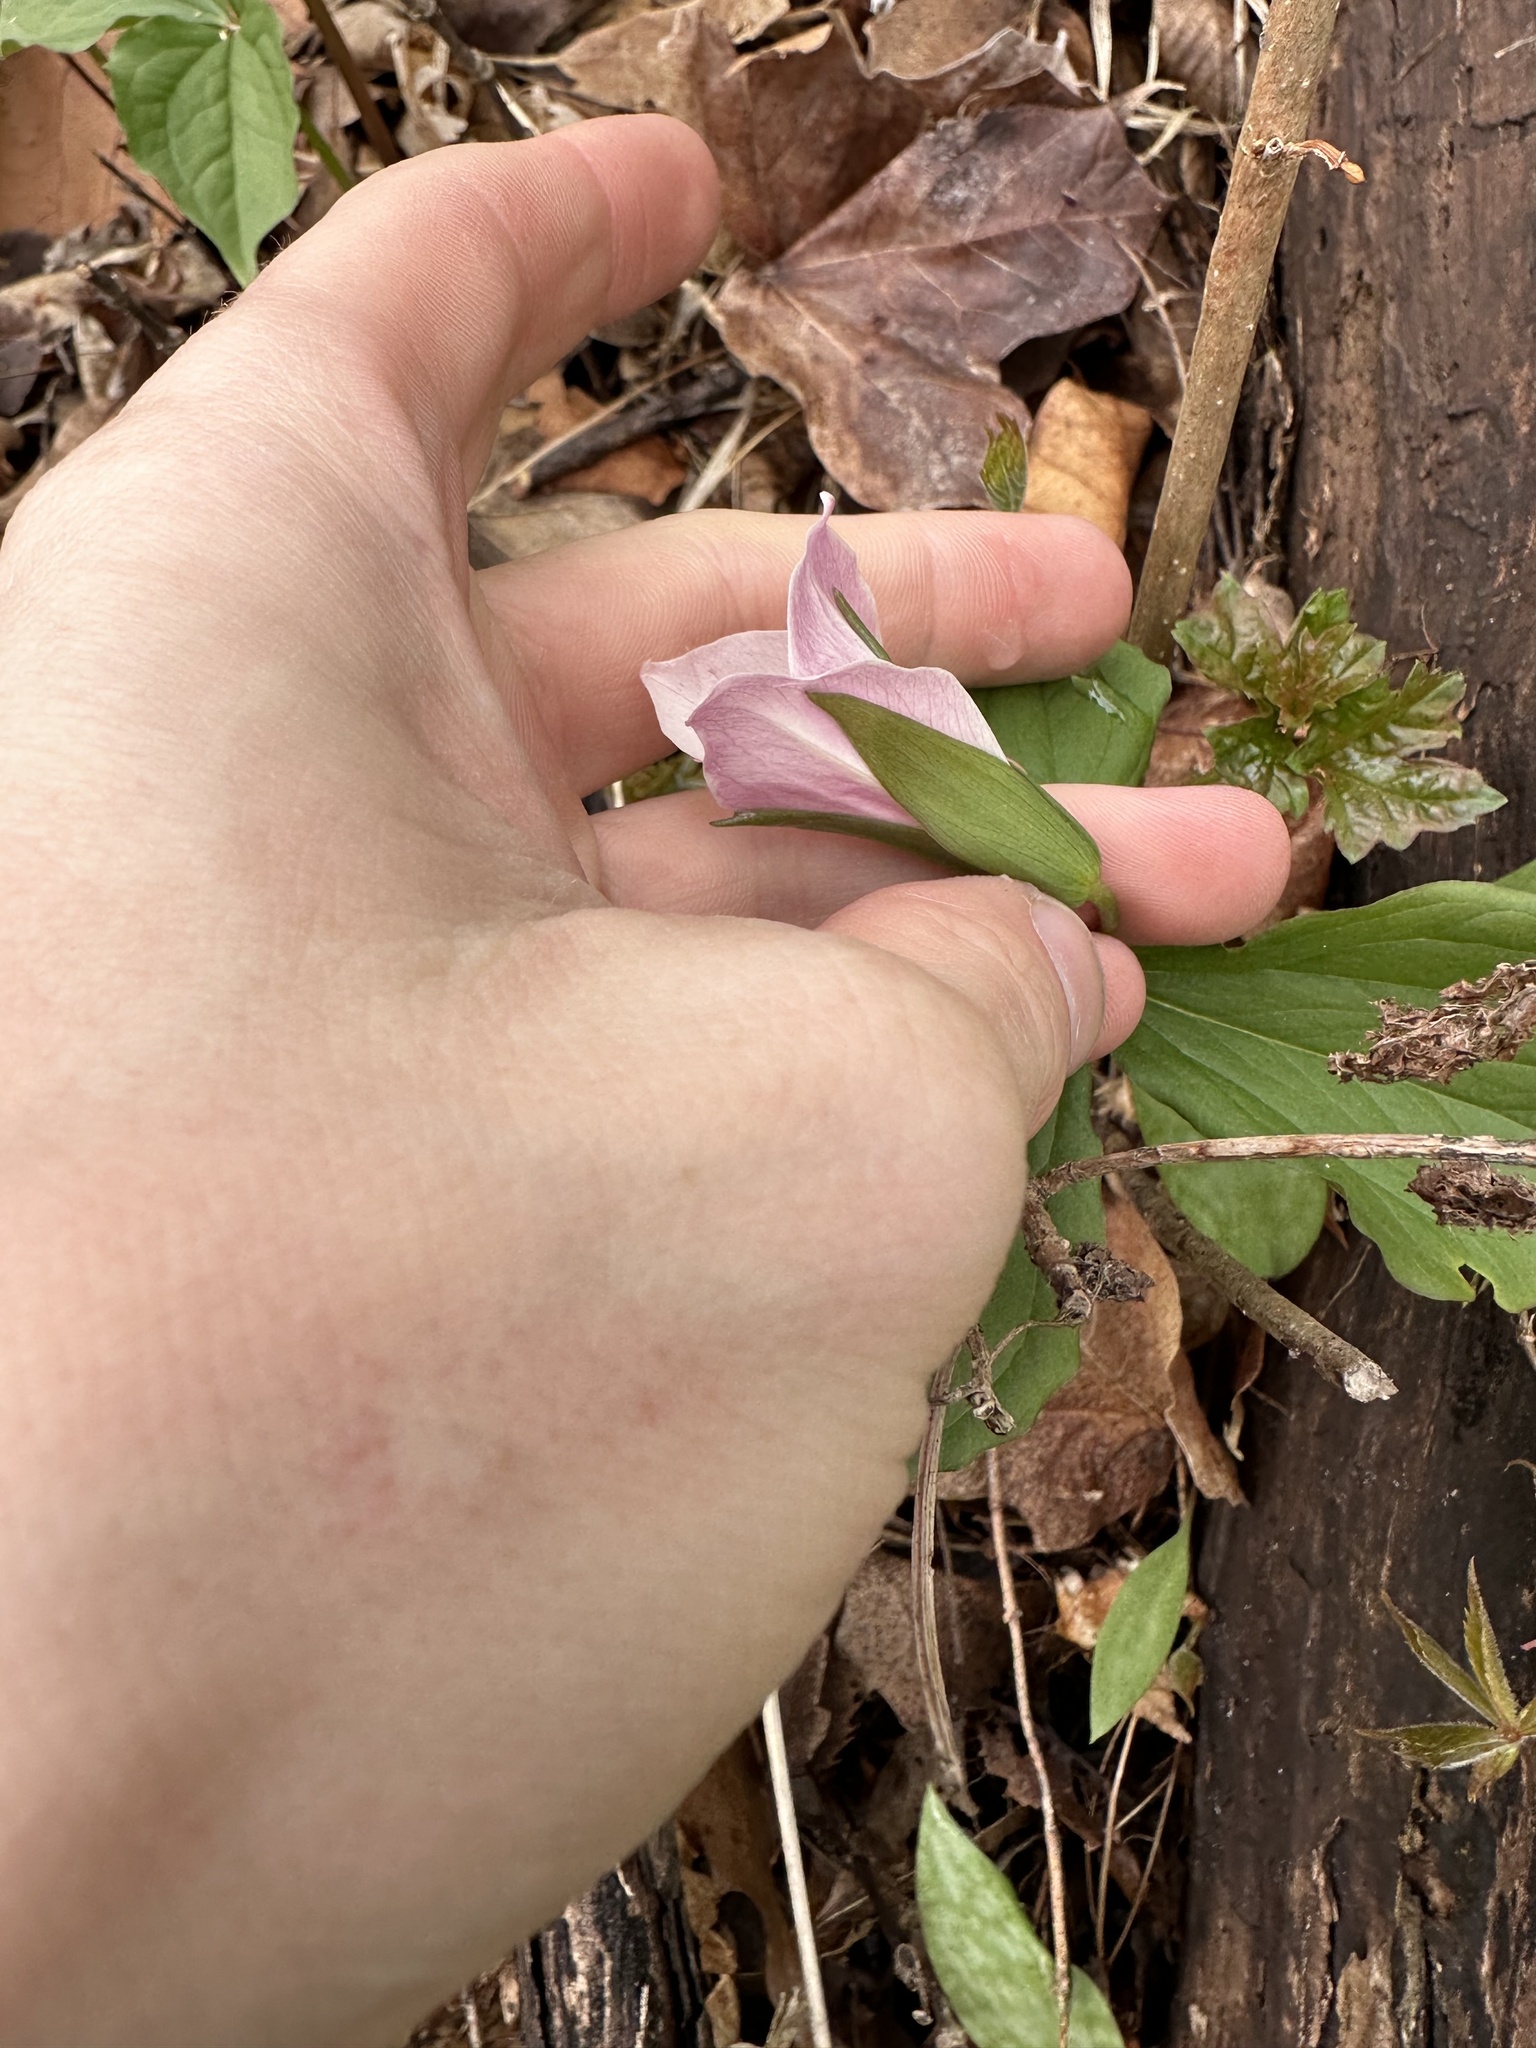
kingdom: Plantae
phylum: Tracheophyta
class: Liliopsida
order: Liliales
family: Melanthiaceae
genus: Trillium
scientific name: Trillium grandiflorum
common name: Great white trillium
